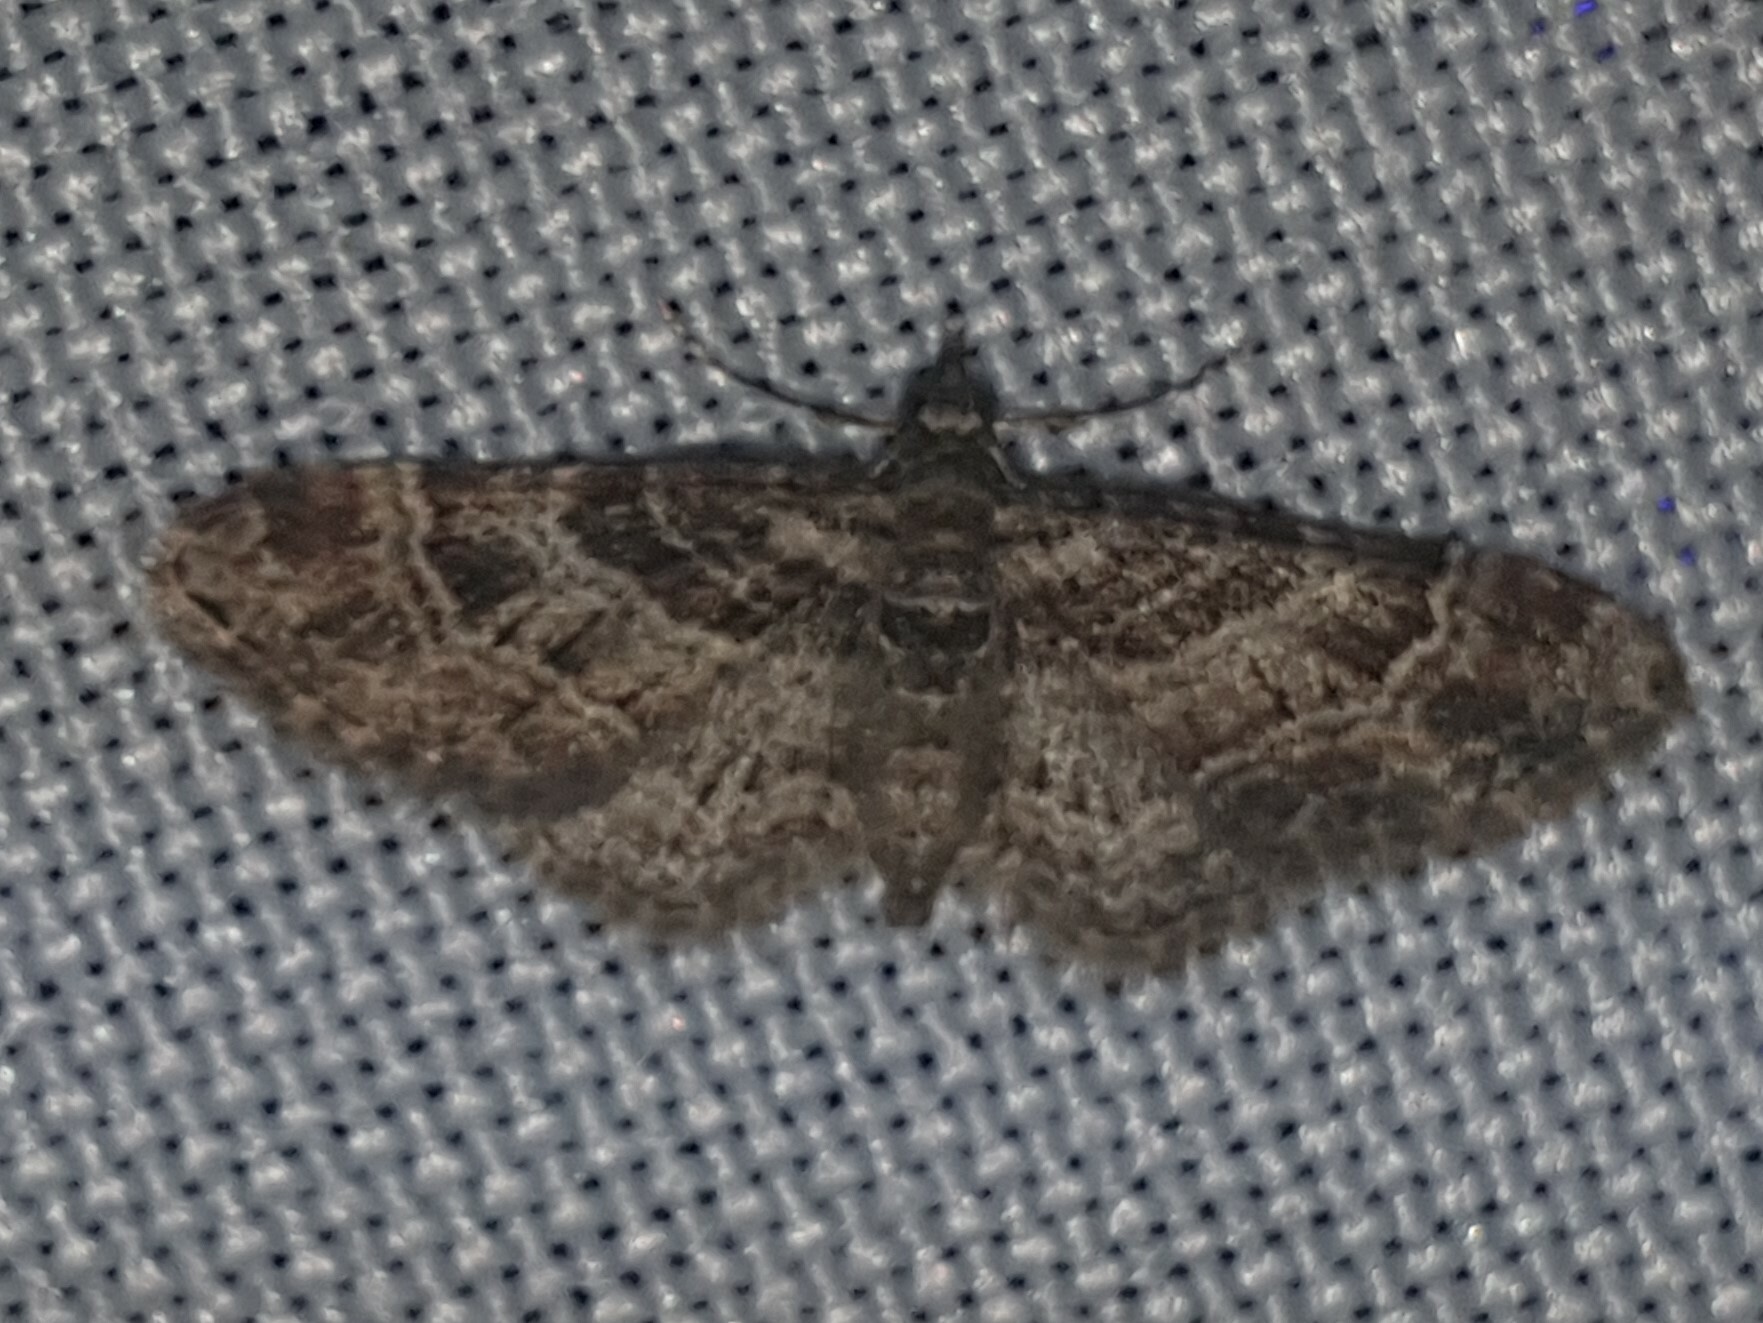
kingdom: Animalia
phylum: Arthropoda
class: Insecta
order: Lepidoptera
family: Geometridae
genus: Gymnoscelis
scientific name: Gymnoscelis rufifasciata
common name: Double-striped pug
